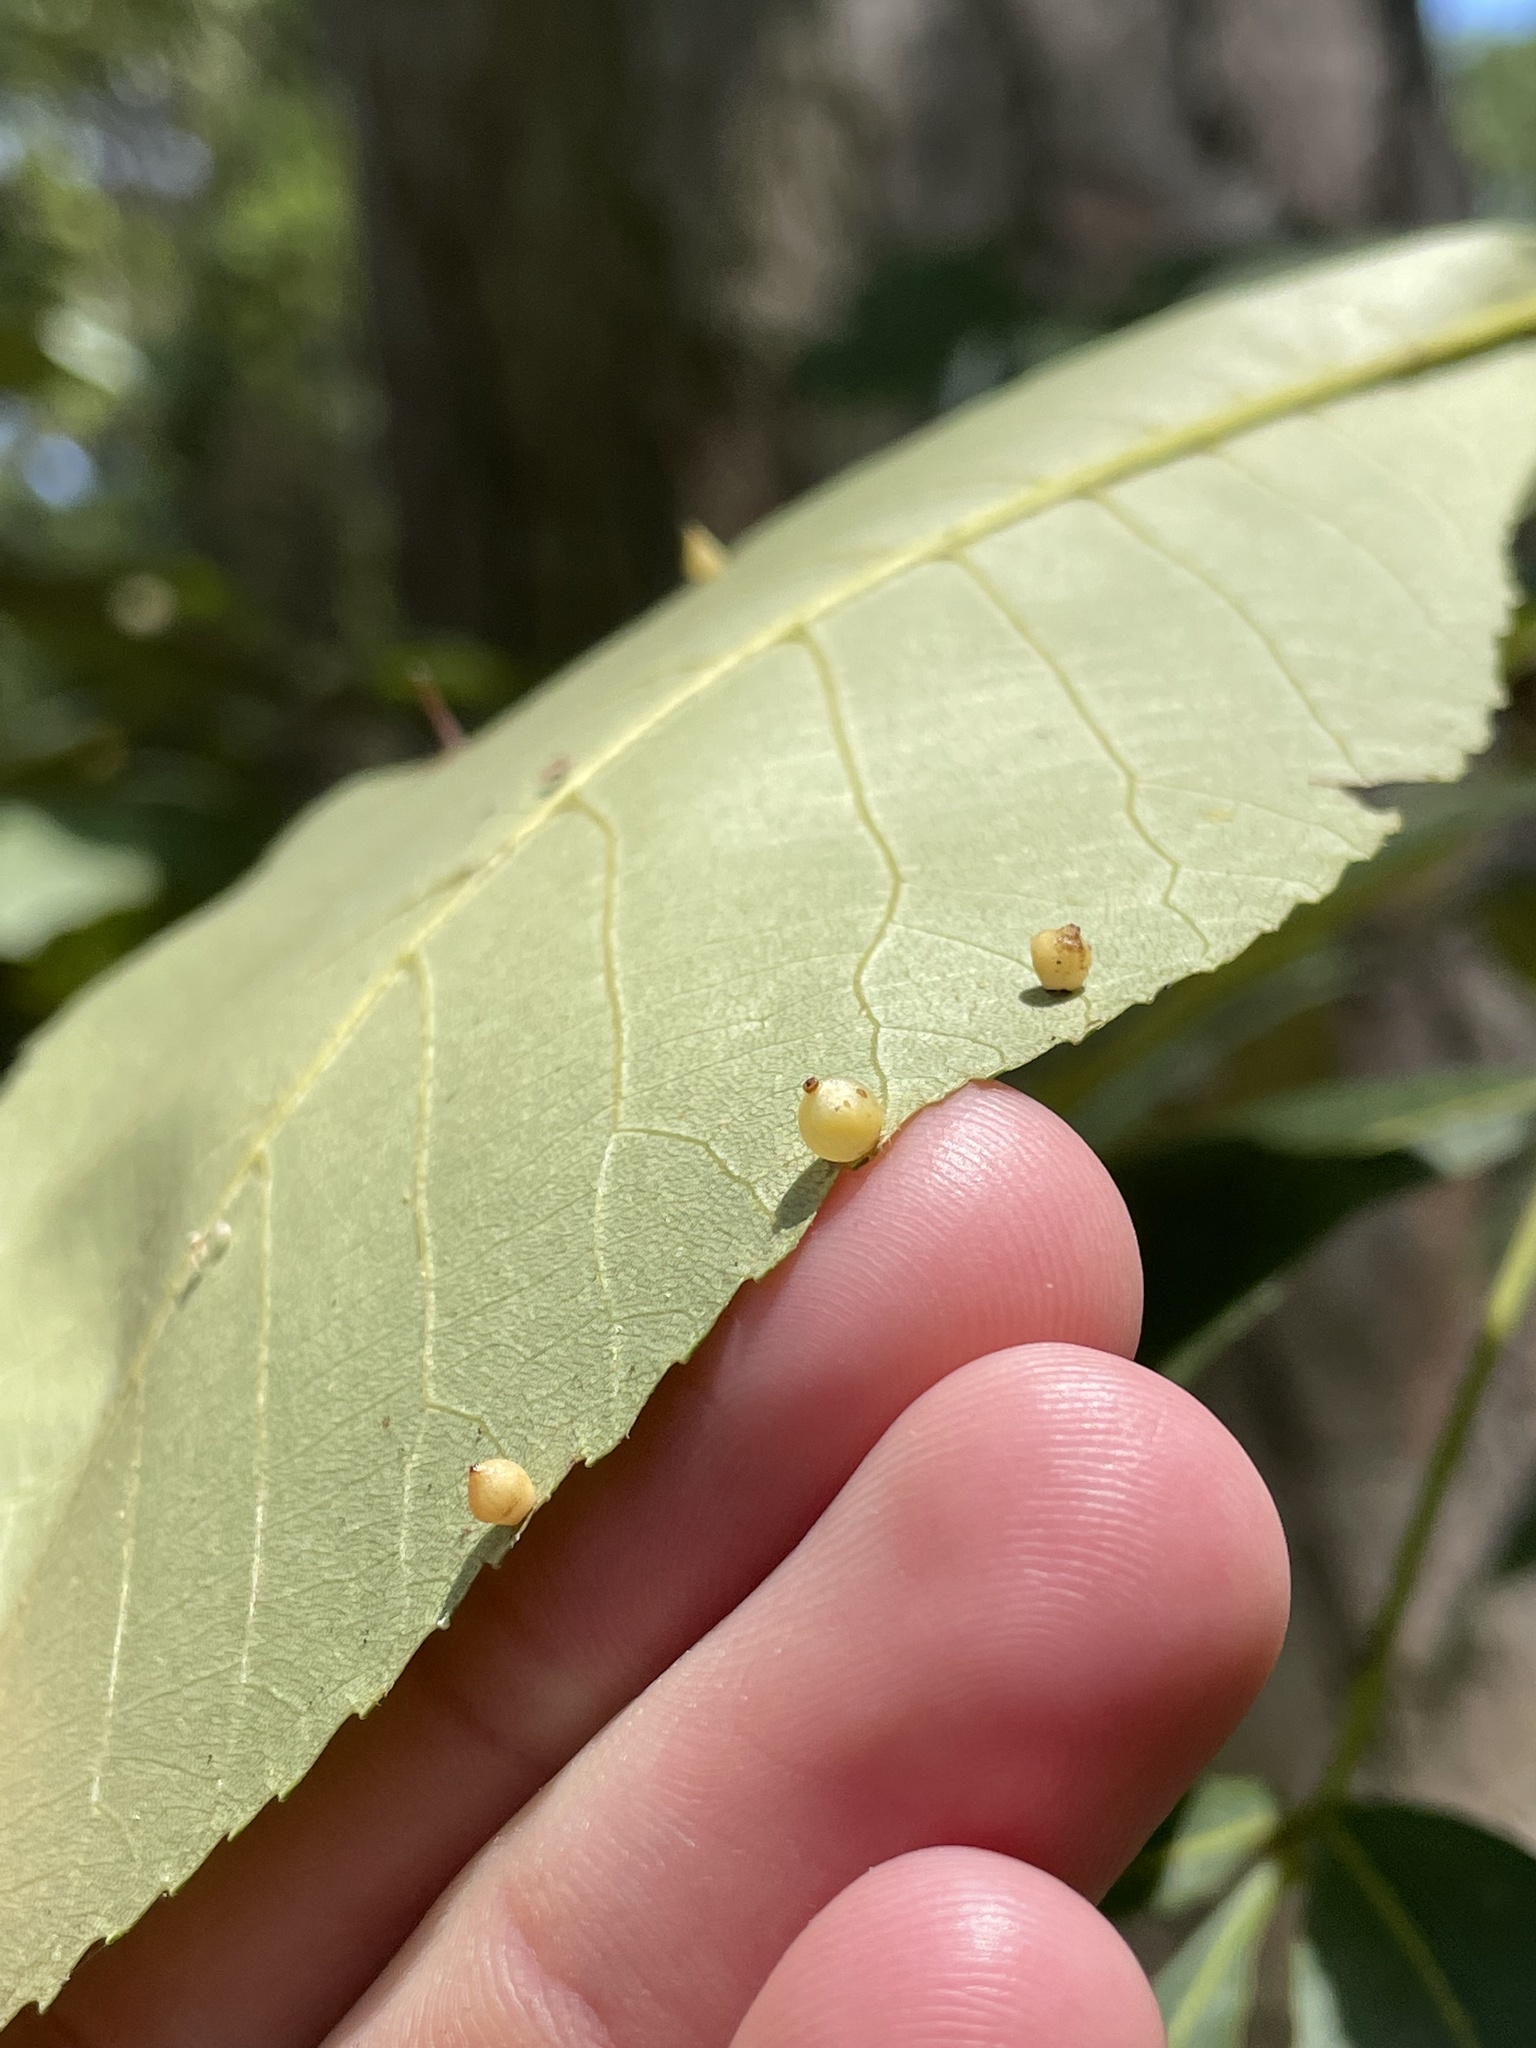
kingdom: Animalia
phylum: Arthropoda
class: Insecta
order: Diptera
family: Cecidomyiidae
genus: Caryomyia
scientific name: Caryomyia caryae
